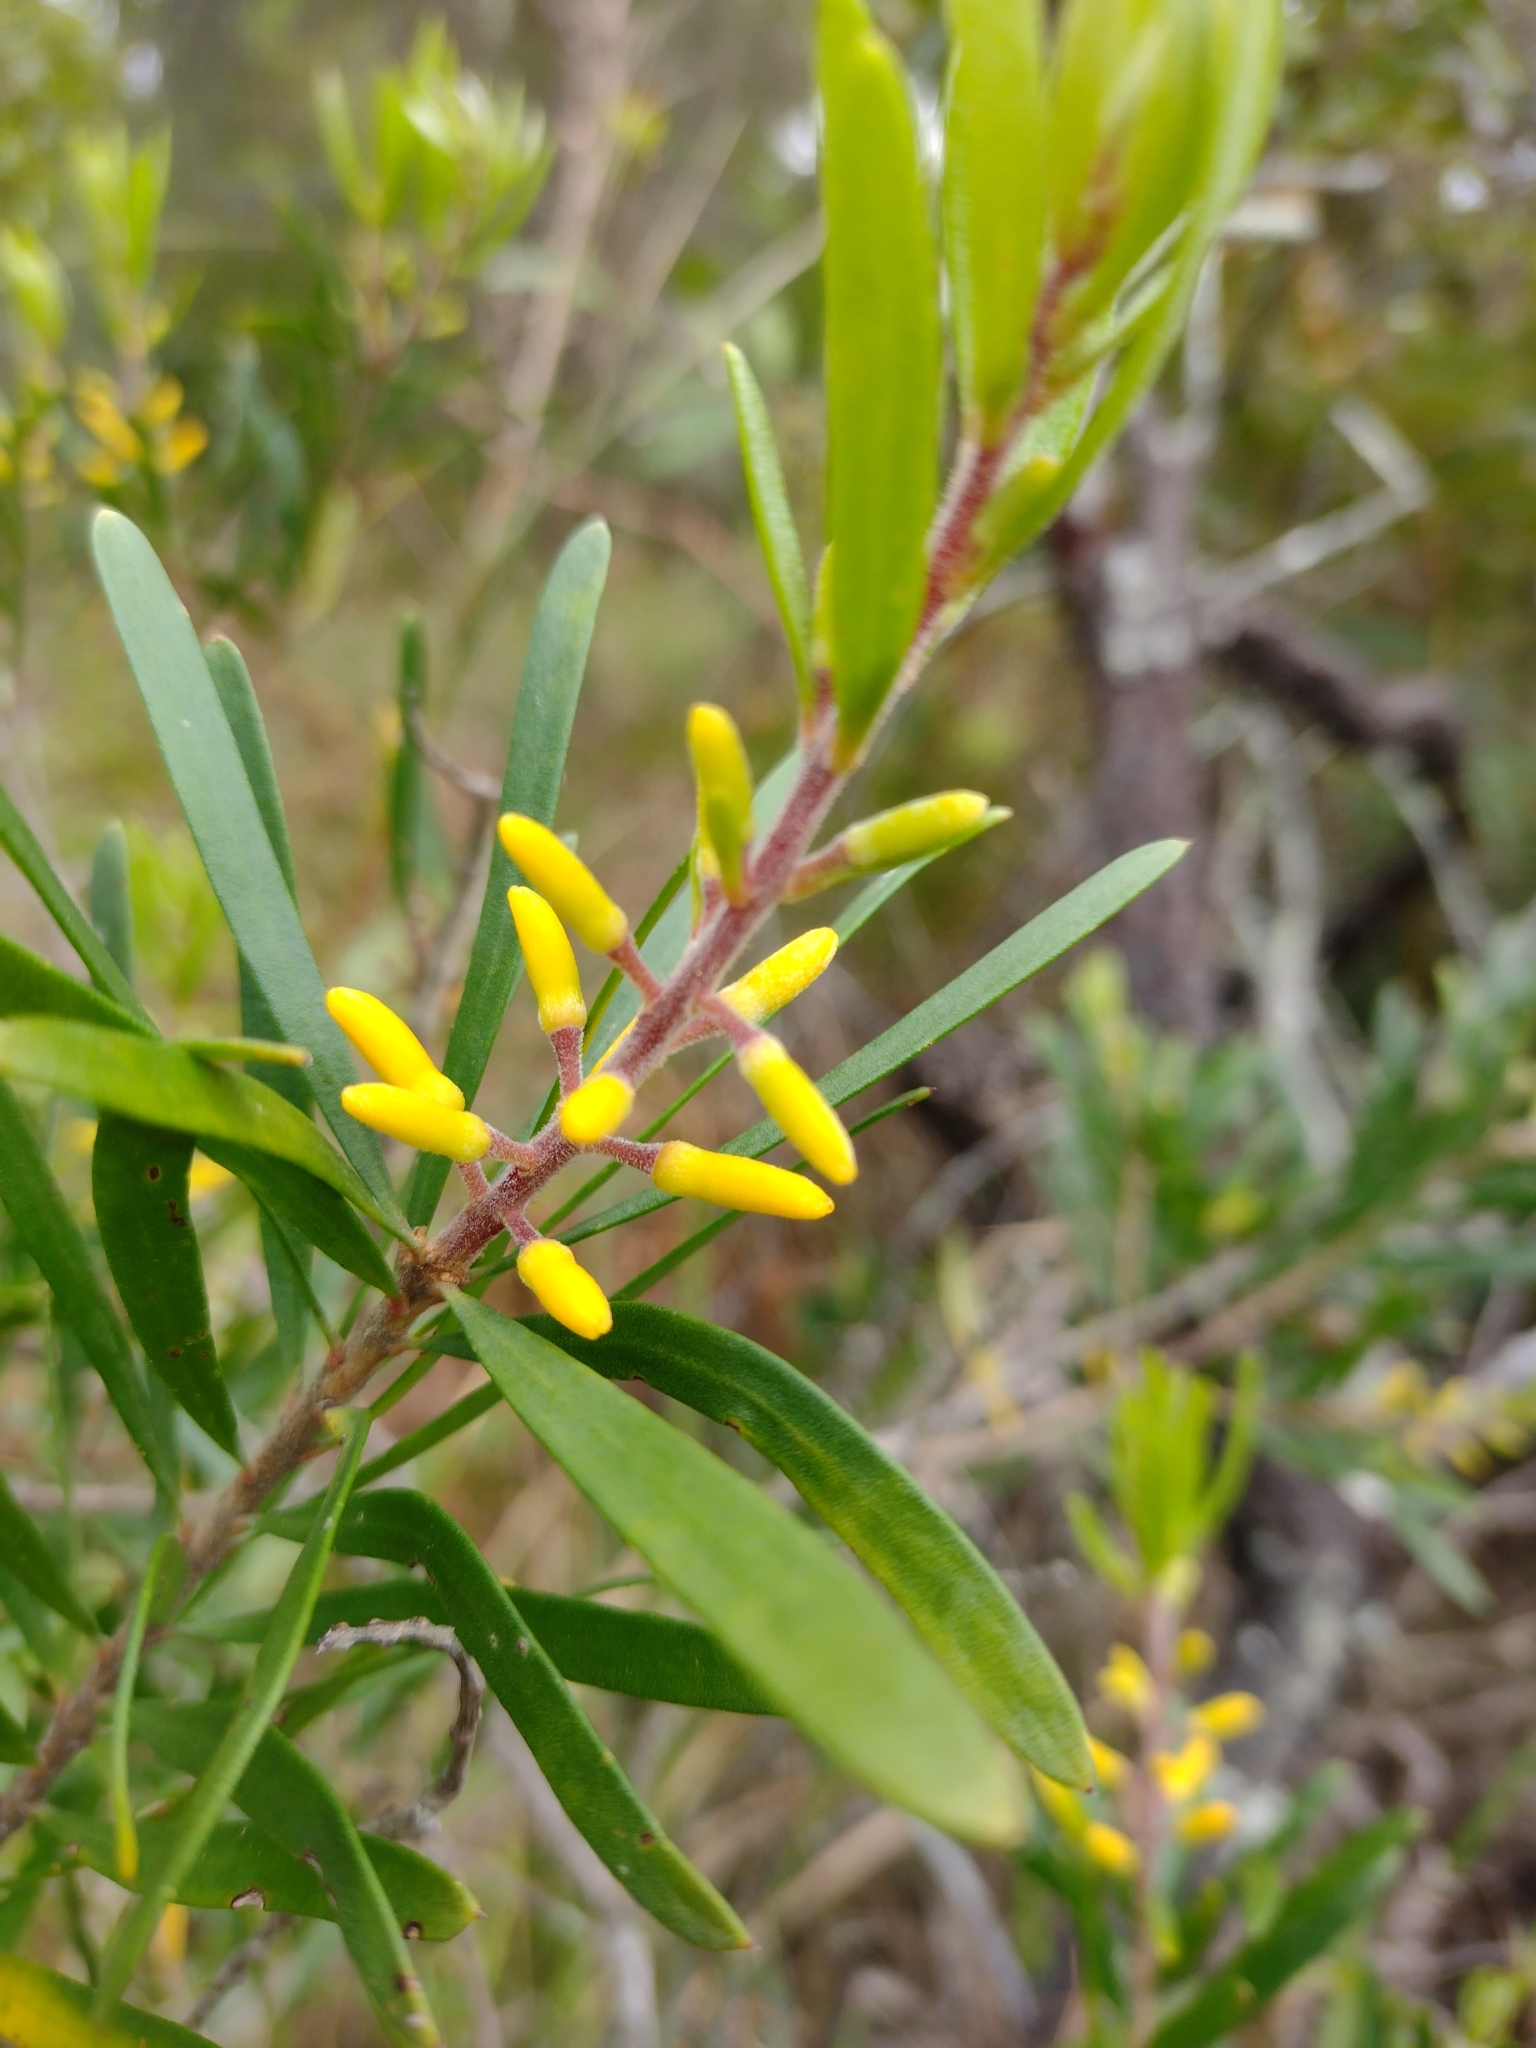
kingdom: Plantae
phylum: Tracheophyta
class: Magnoliopsida
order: Proteales
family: Proteaceae
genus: Persoonia
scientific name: Persoonia linearis
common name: Narrow-leaf geebung
